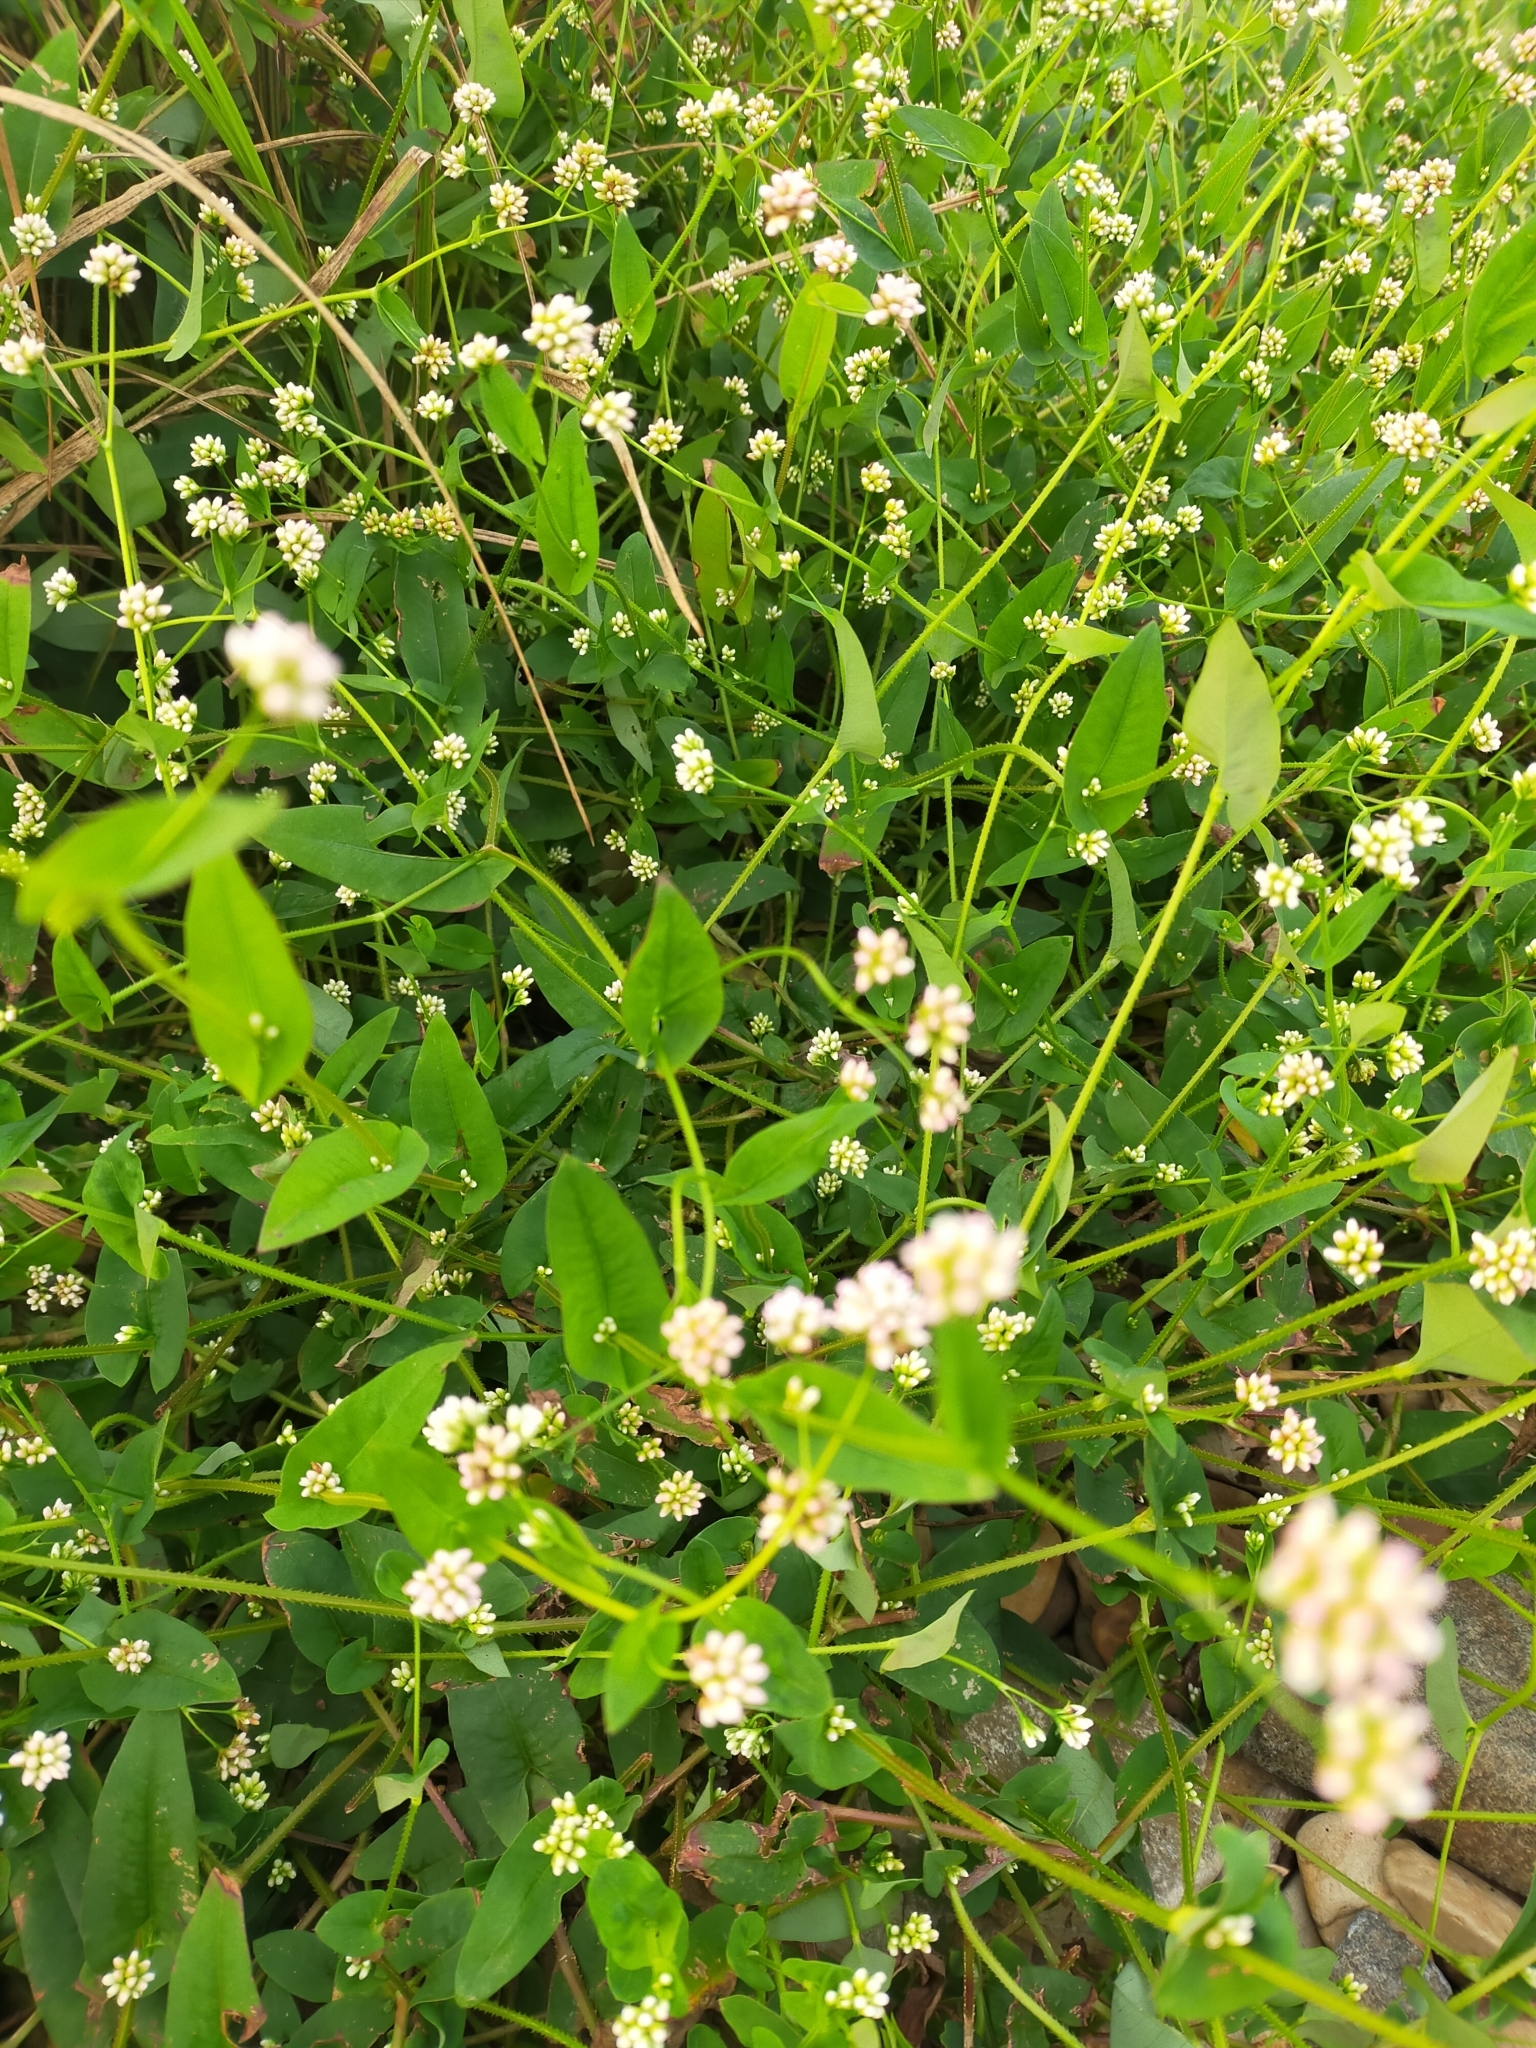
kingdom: Plantae
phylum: Tracheophyta
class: Magnoliopsida
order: Caryophyllales
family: Polygonaceae
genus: Persicaria
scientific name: Persicaria sagittata
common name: American tearthumb
